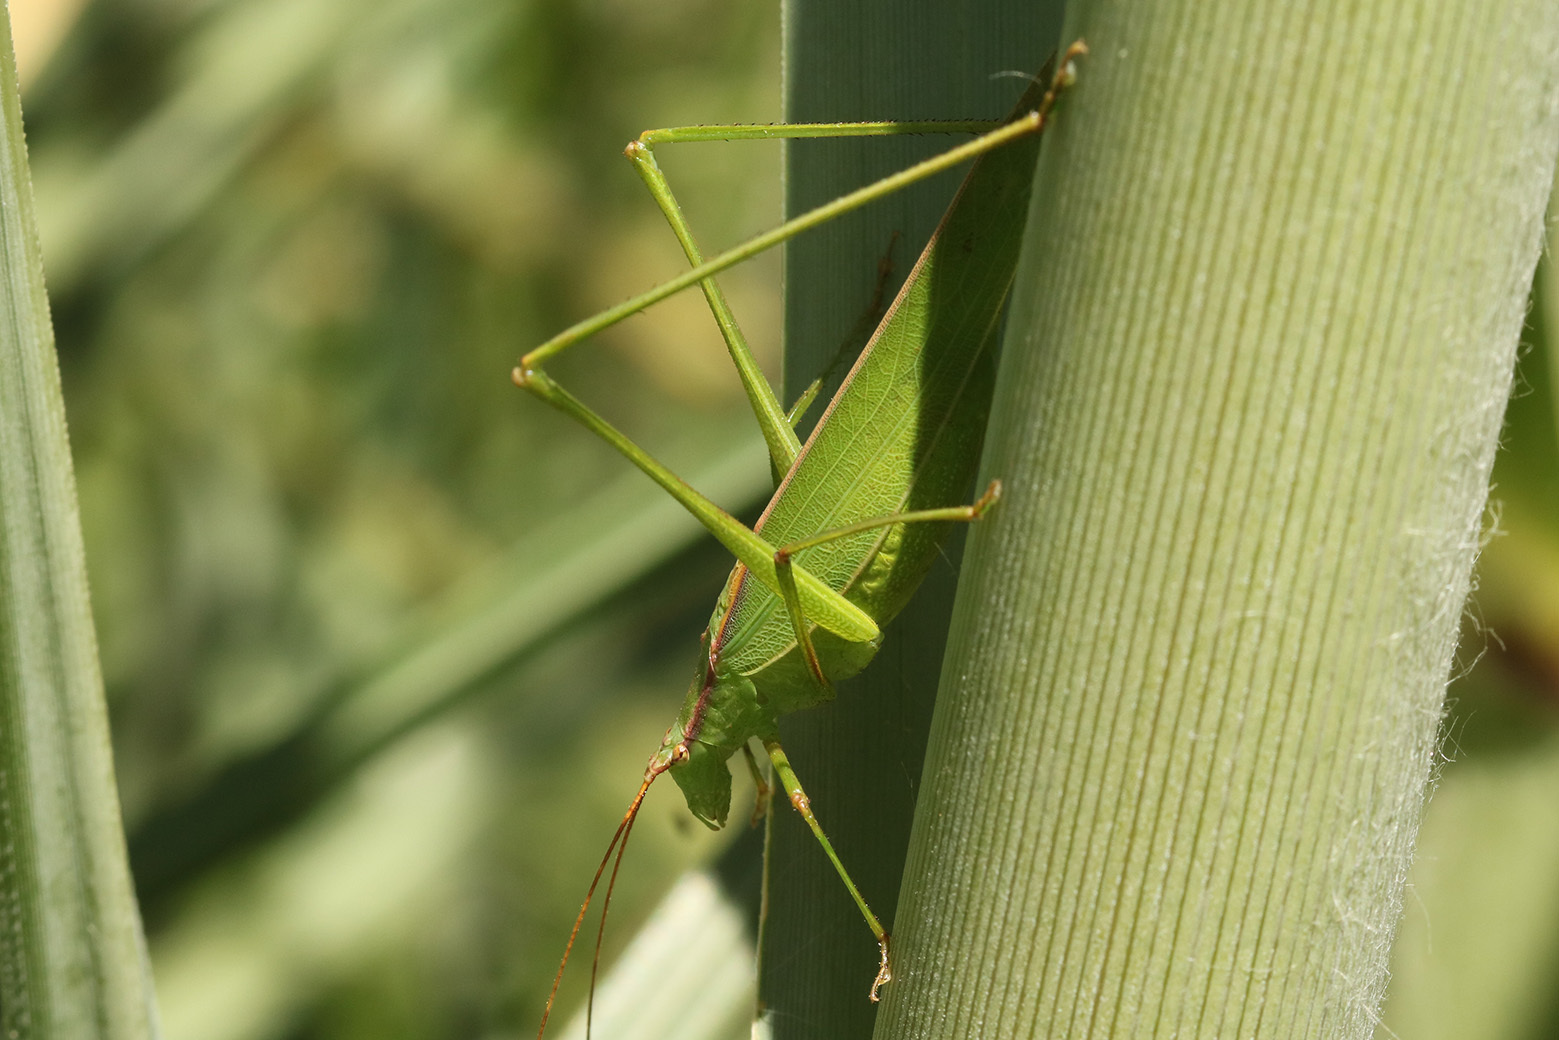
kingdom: Animalia
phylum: Arthropoda
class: Insecta
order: Orthoptera
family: Tettigoniidae
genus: Hyperophora
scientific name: Hyperophora major
